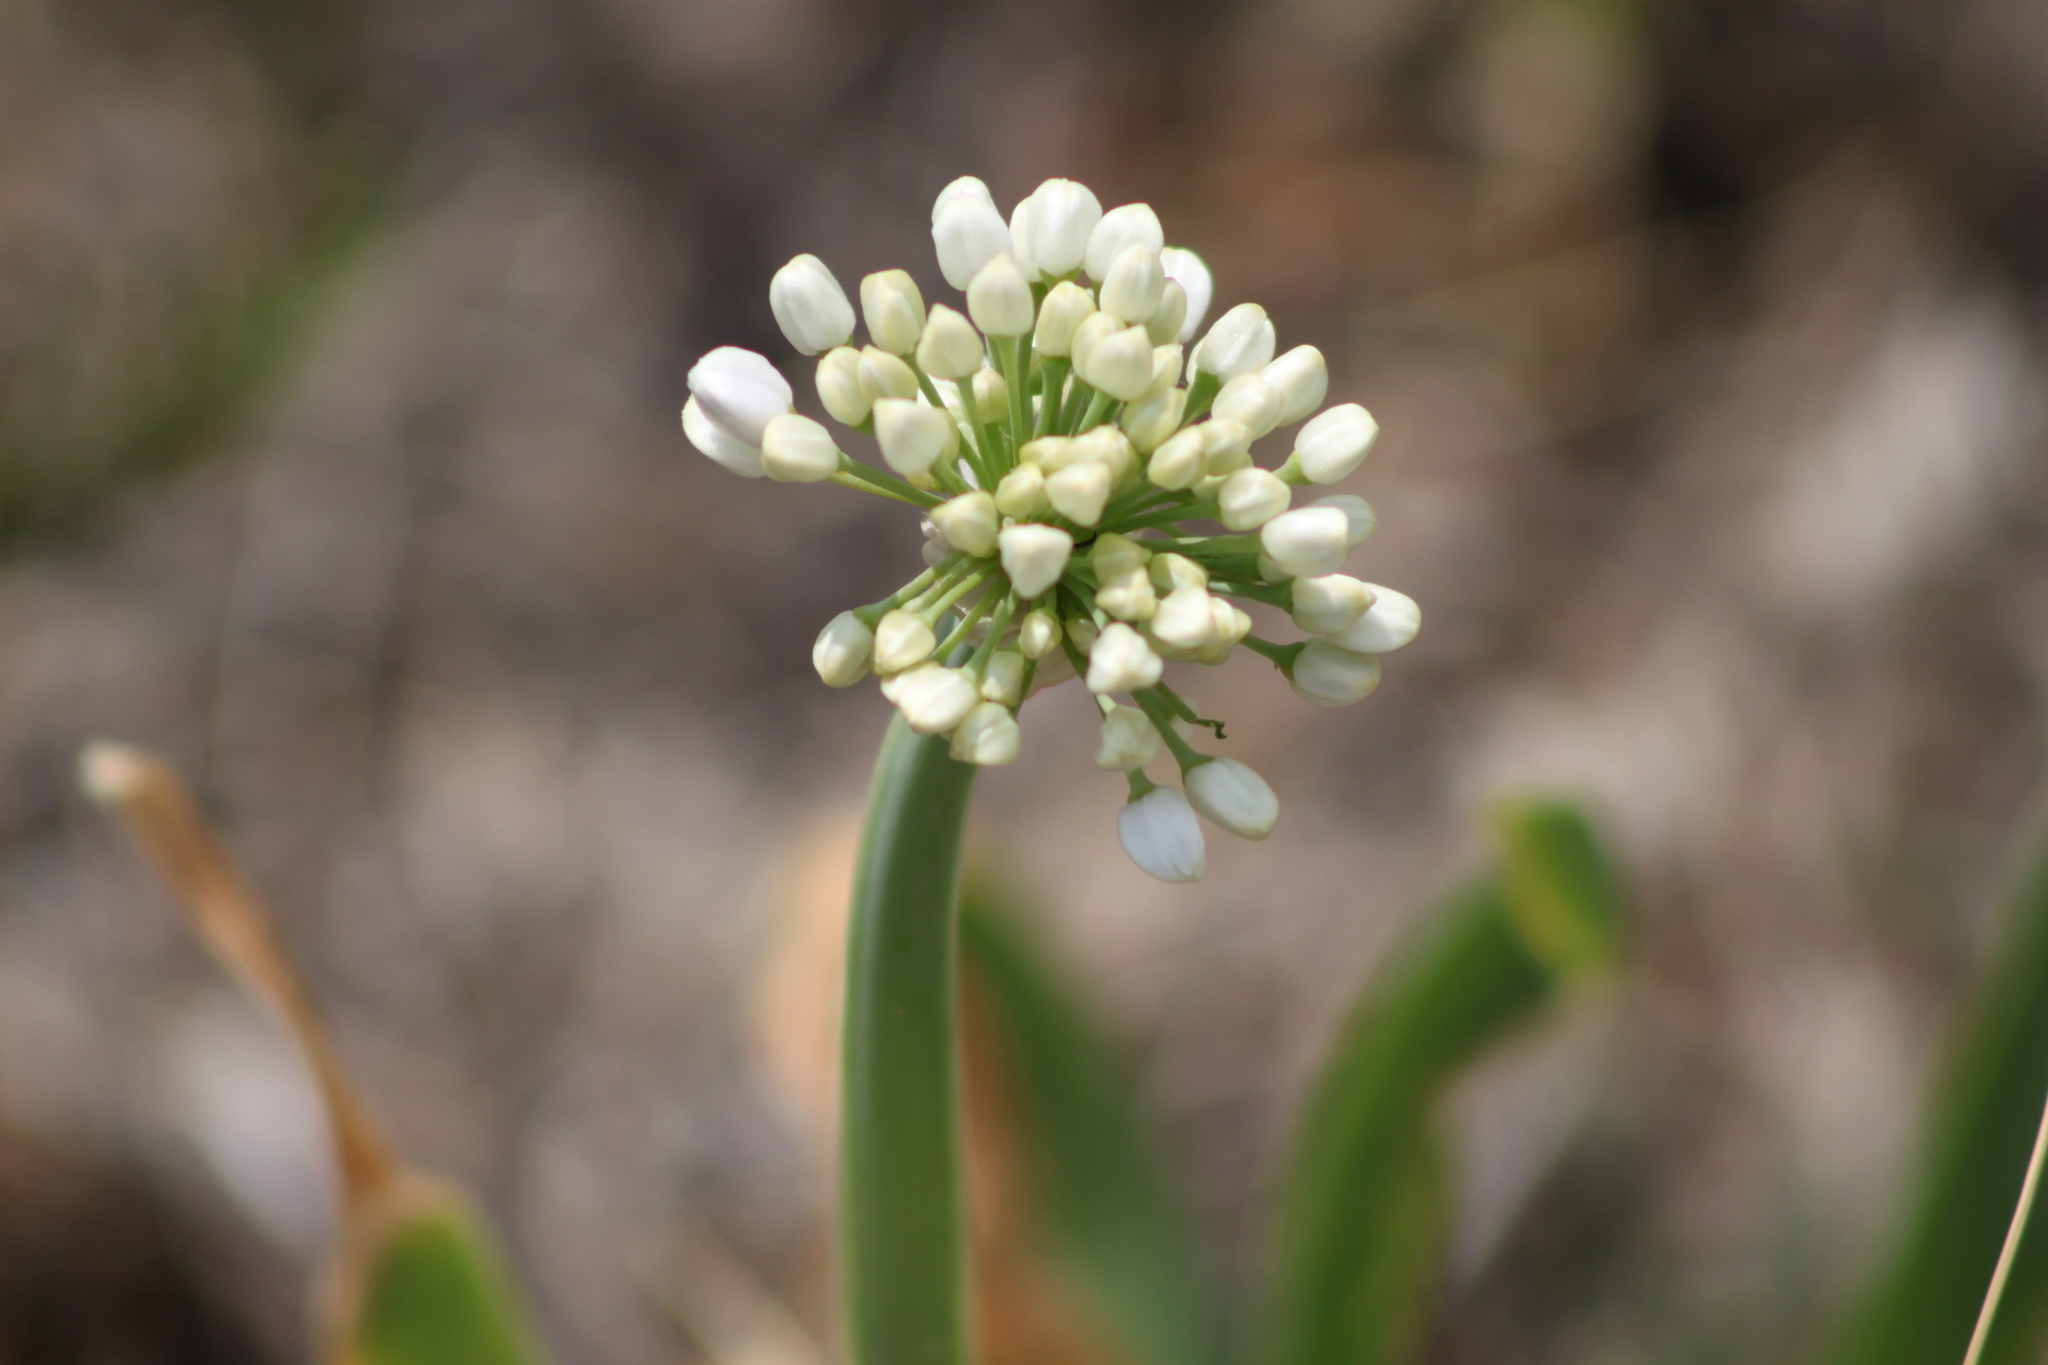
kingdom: Plantae
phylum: Tracheophyta
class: Liliopsida
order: Asparagales
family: Amaryllidaceae
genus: Allium
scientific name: Allium nutans
